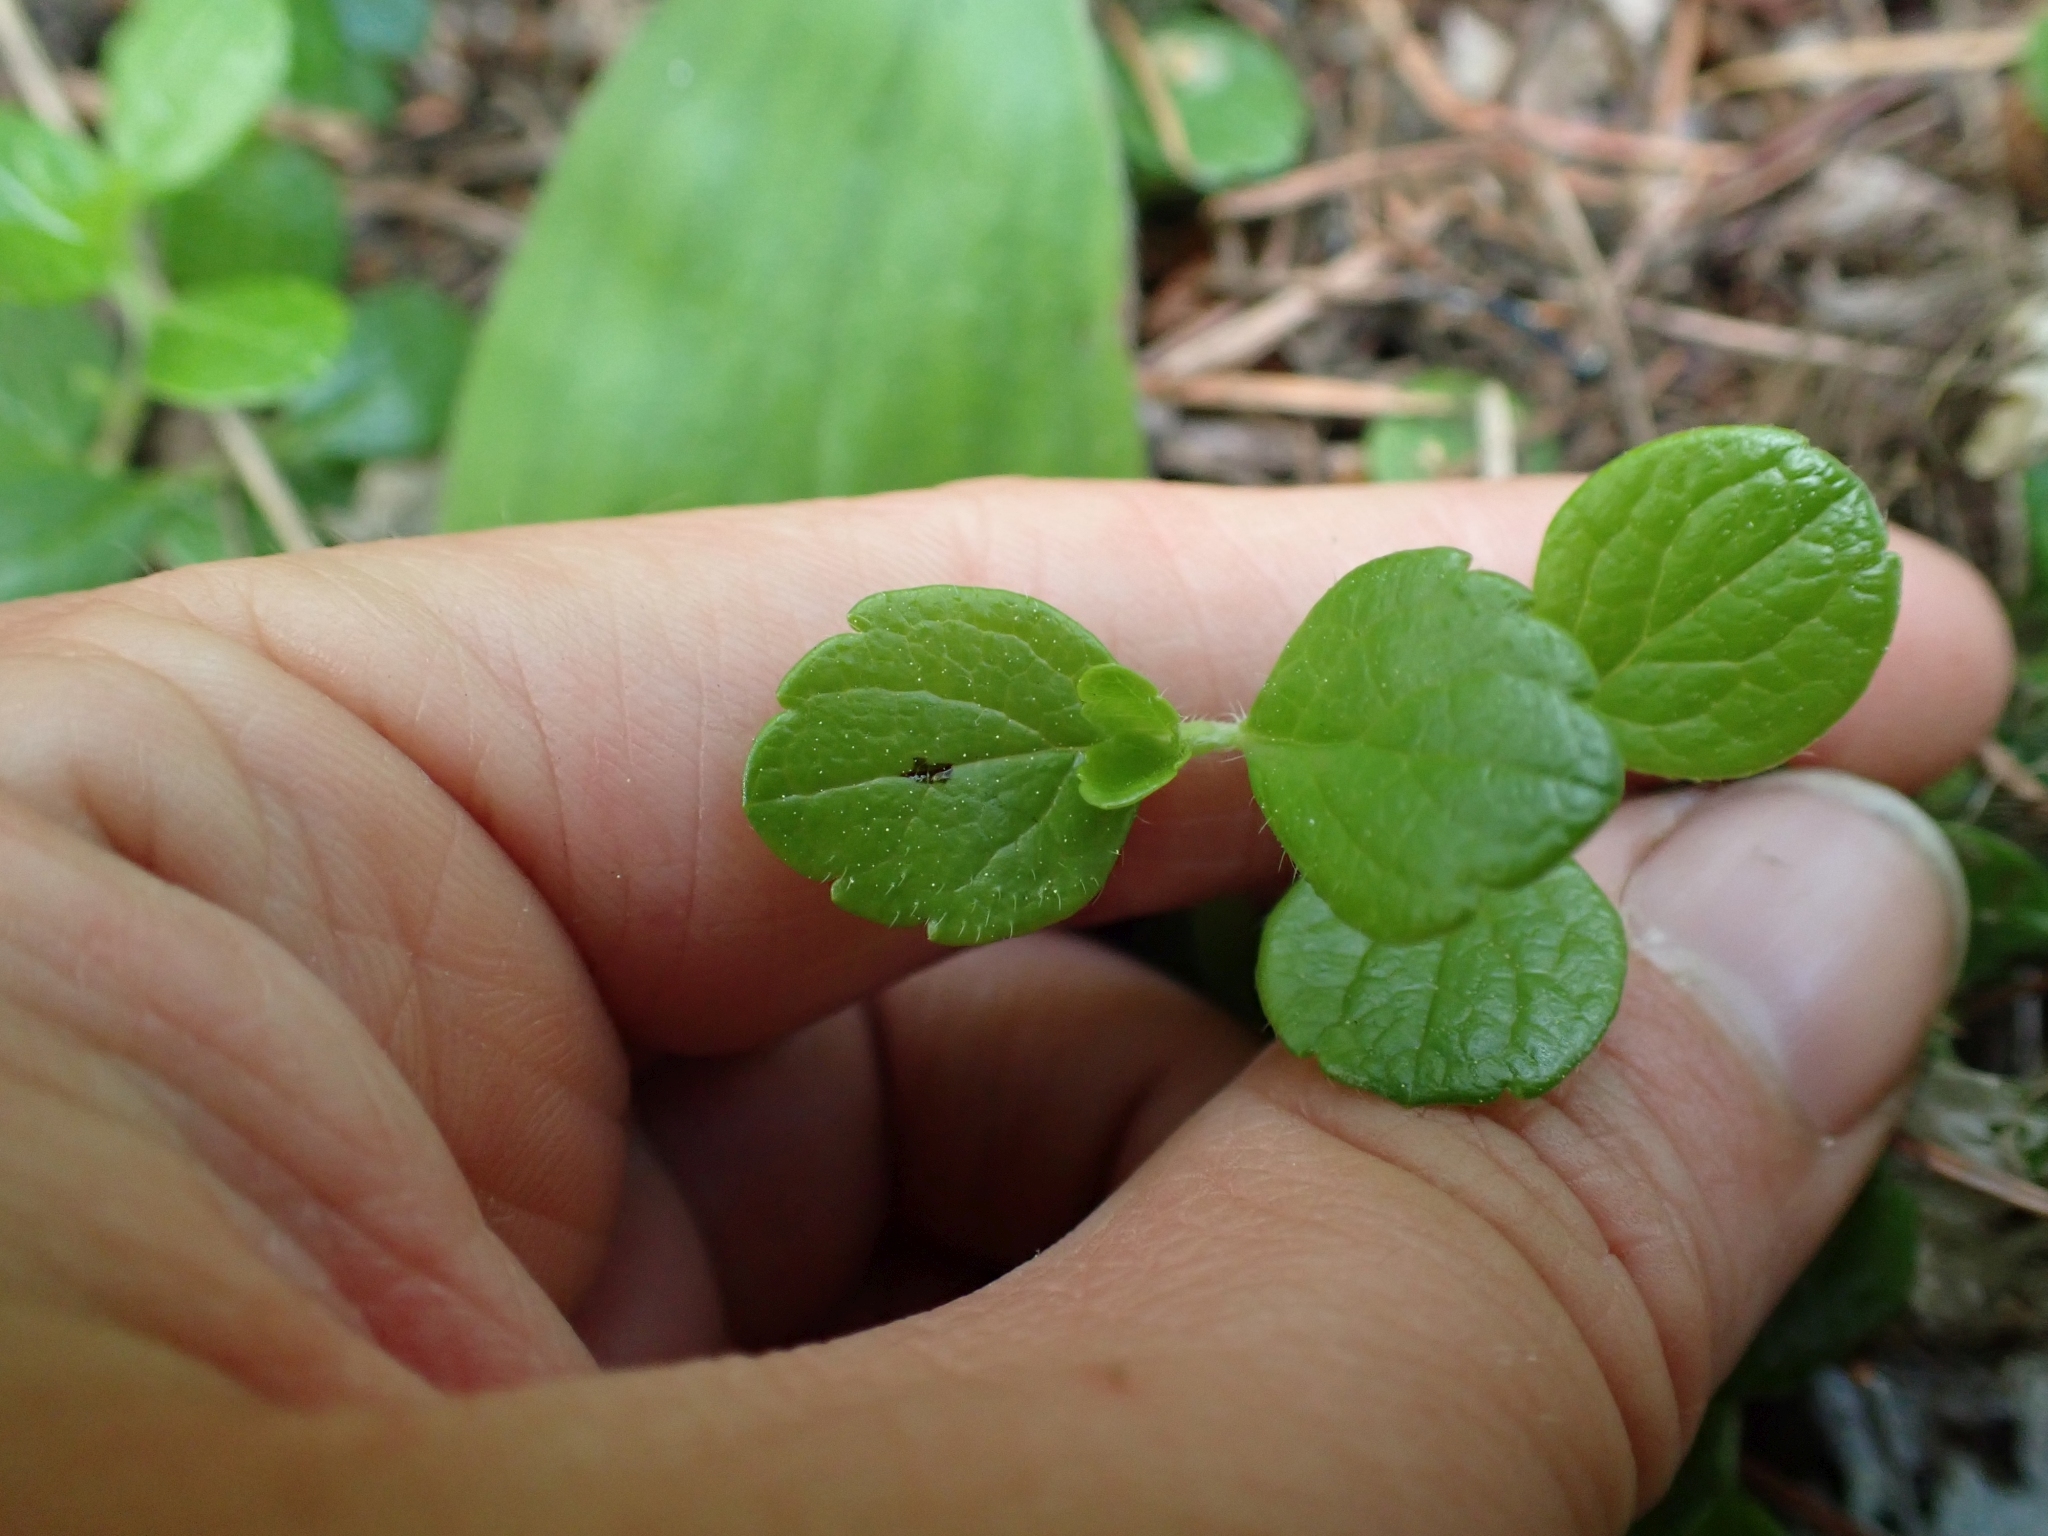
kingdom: Plantae
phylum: Tracheophyta
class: Magnoliopsida
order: Dipsacales
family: Caprifoliaceae
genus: Linnaea
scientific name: Linnaea borealis
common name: Twinflower
